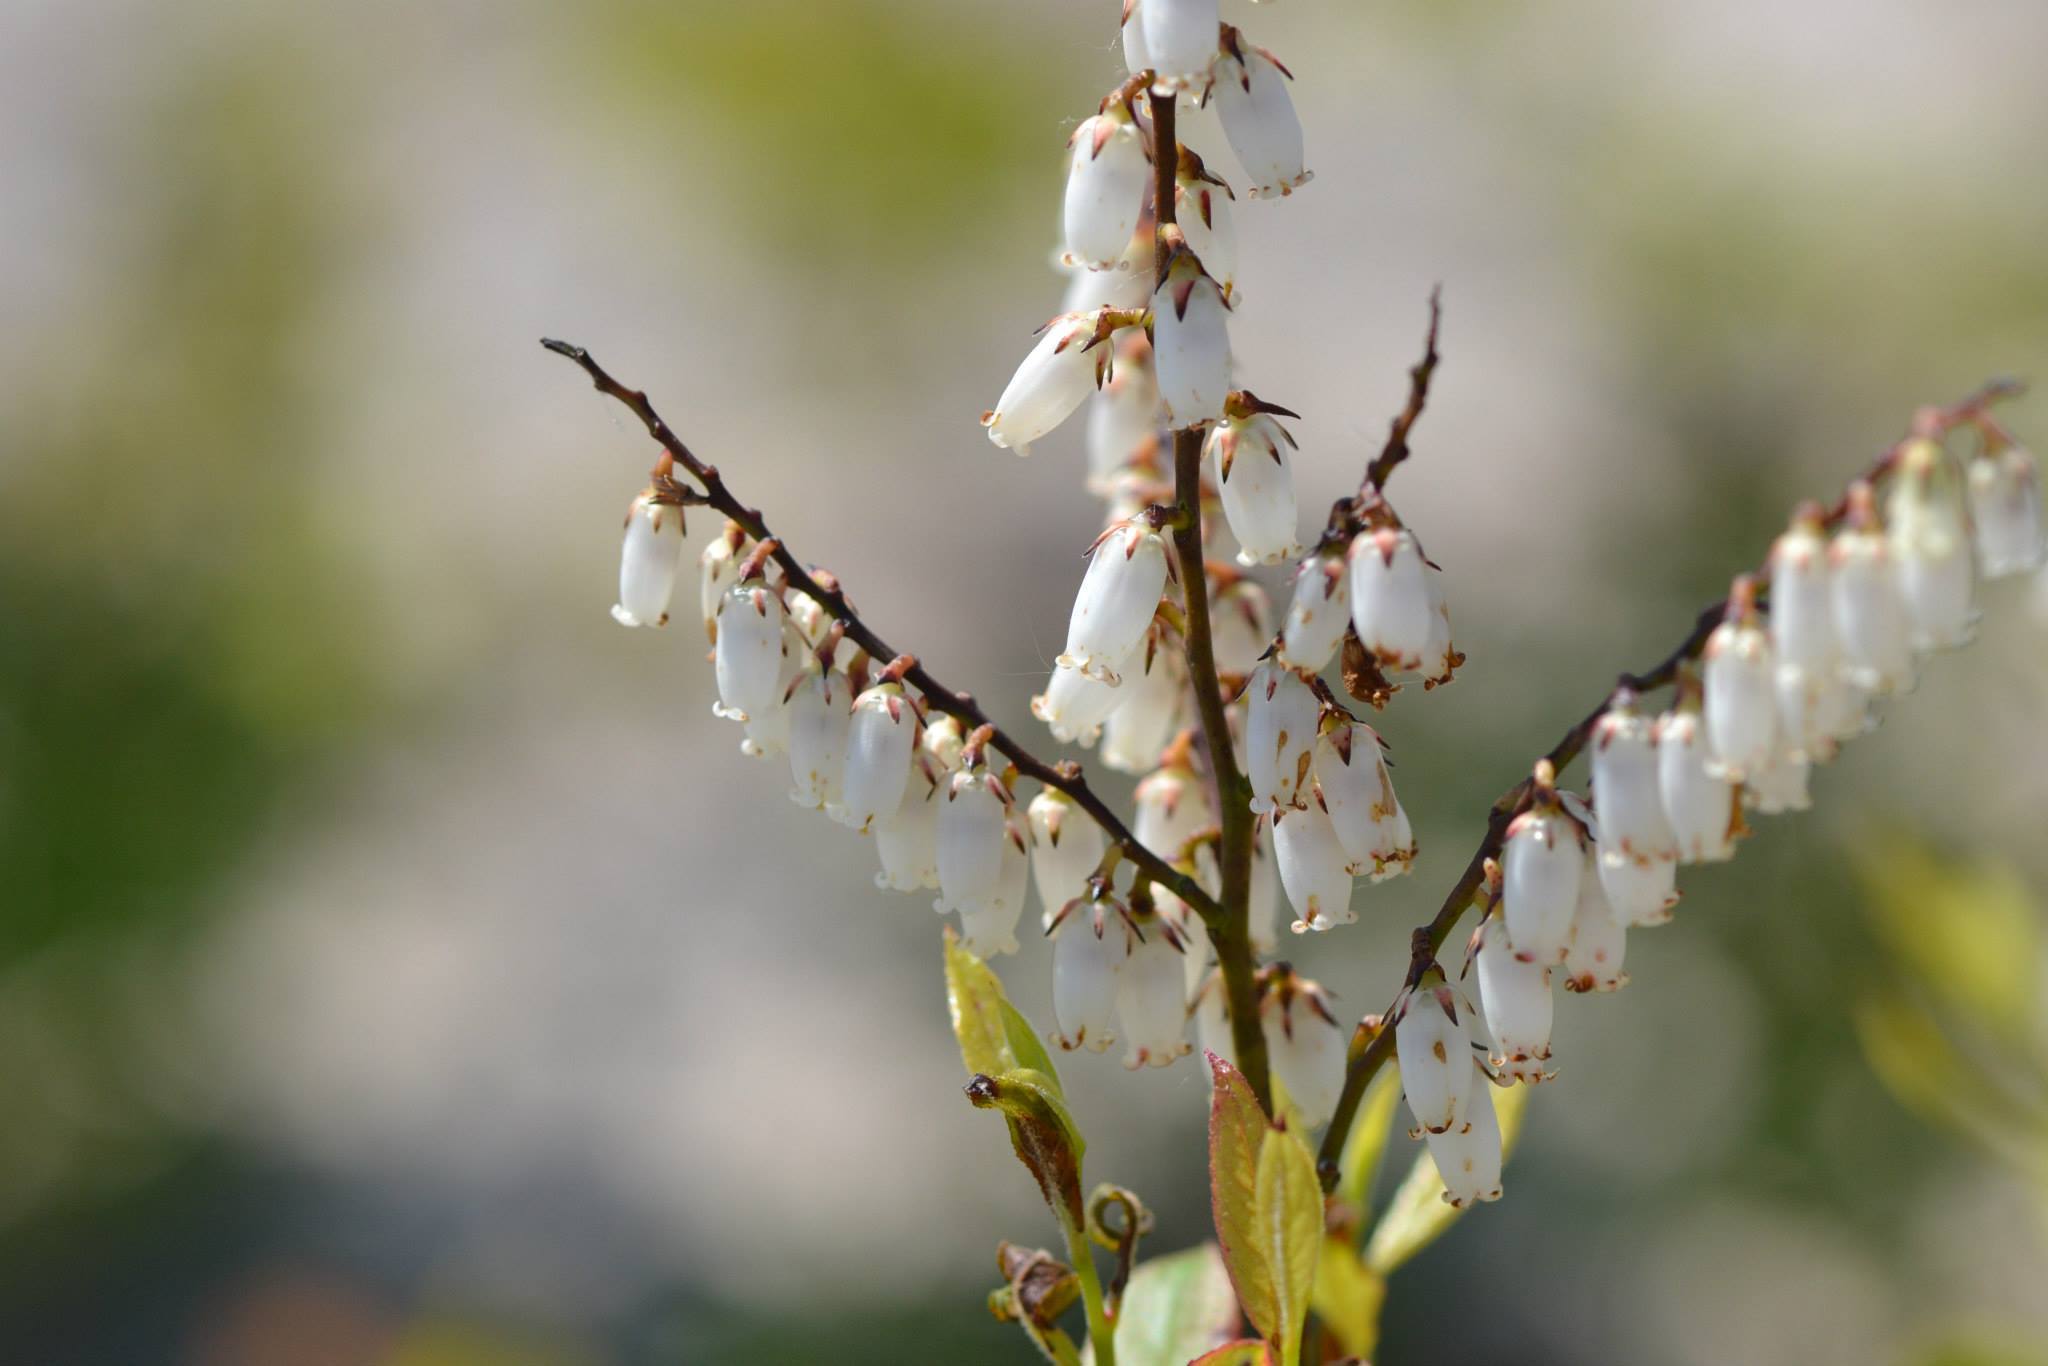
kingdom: Plantae
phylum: Tracheophyta
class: Magnoliopsida
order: Ericales
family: Ericaceae
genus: Eubotrys
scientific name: Eubotrys racemosa
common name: Fetterbush
